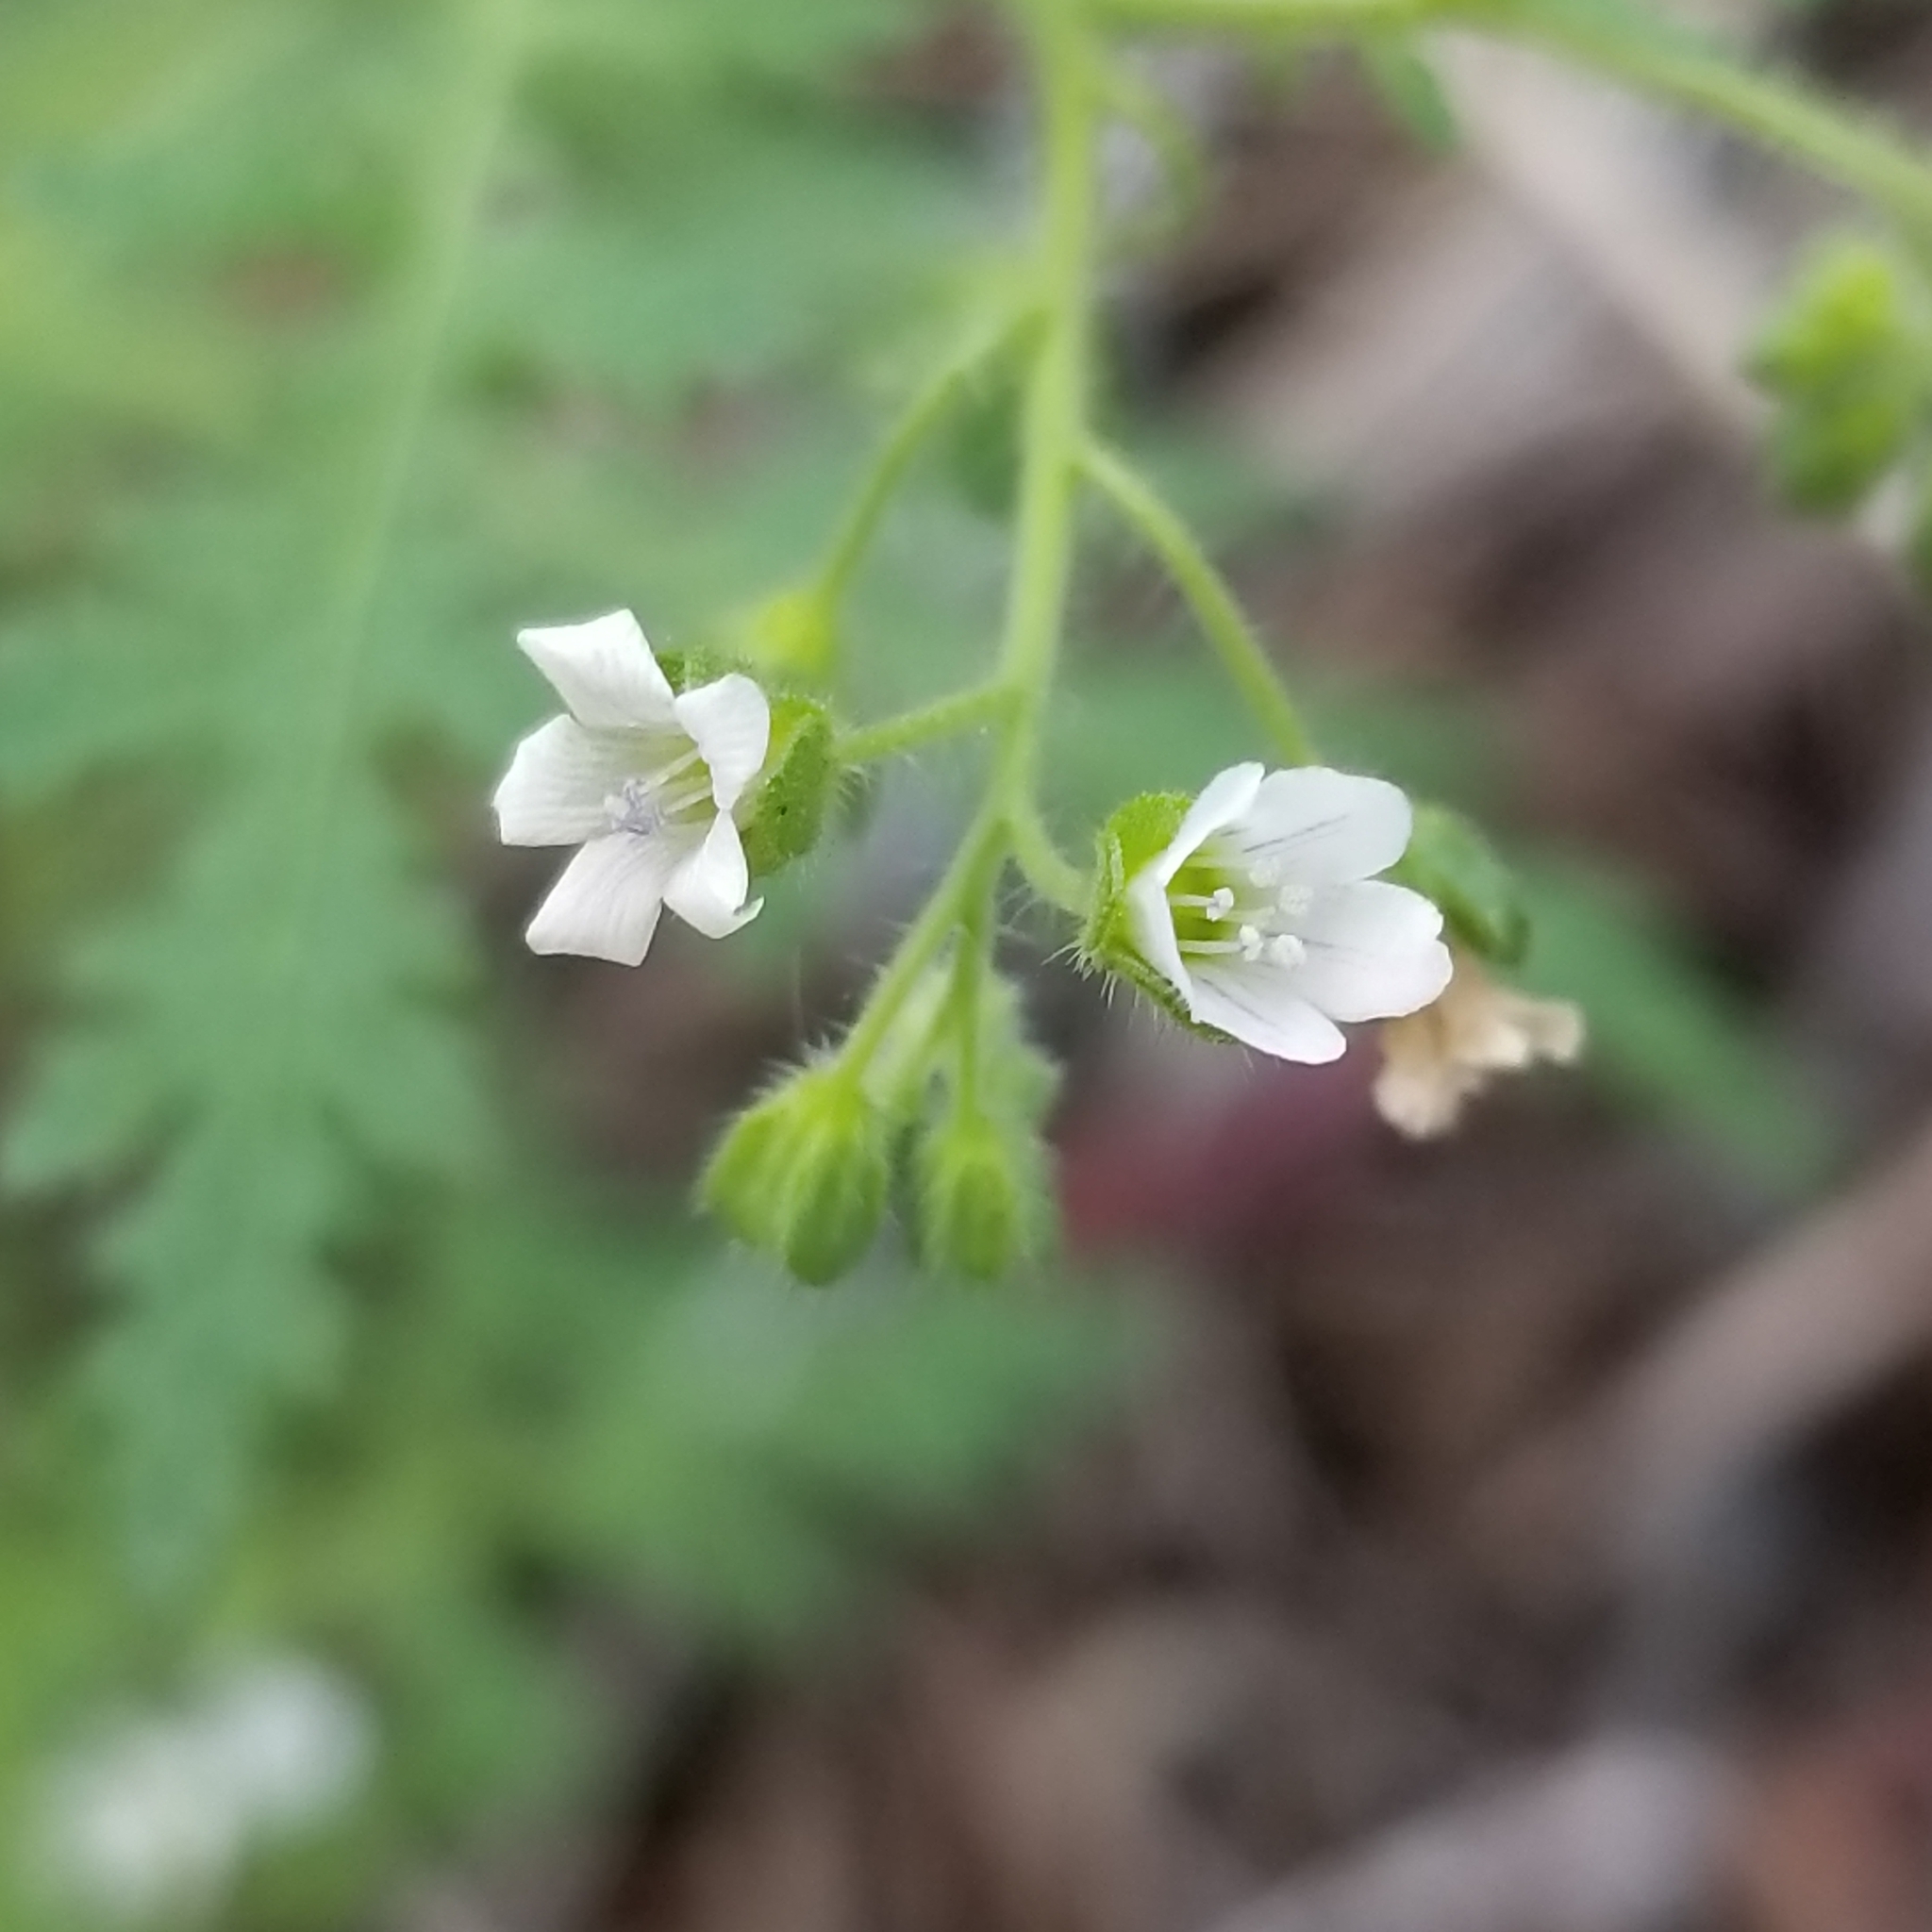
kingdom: Plantae
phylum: Tracheophyta
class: Magnoliopsida
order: Boraginales
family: Hydrophyllaceae
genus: Eucrypta
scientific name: Eucrypta chrysanthemifolia
